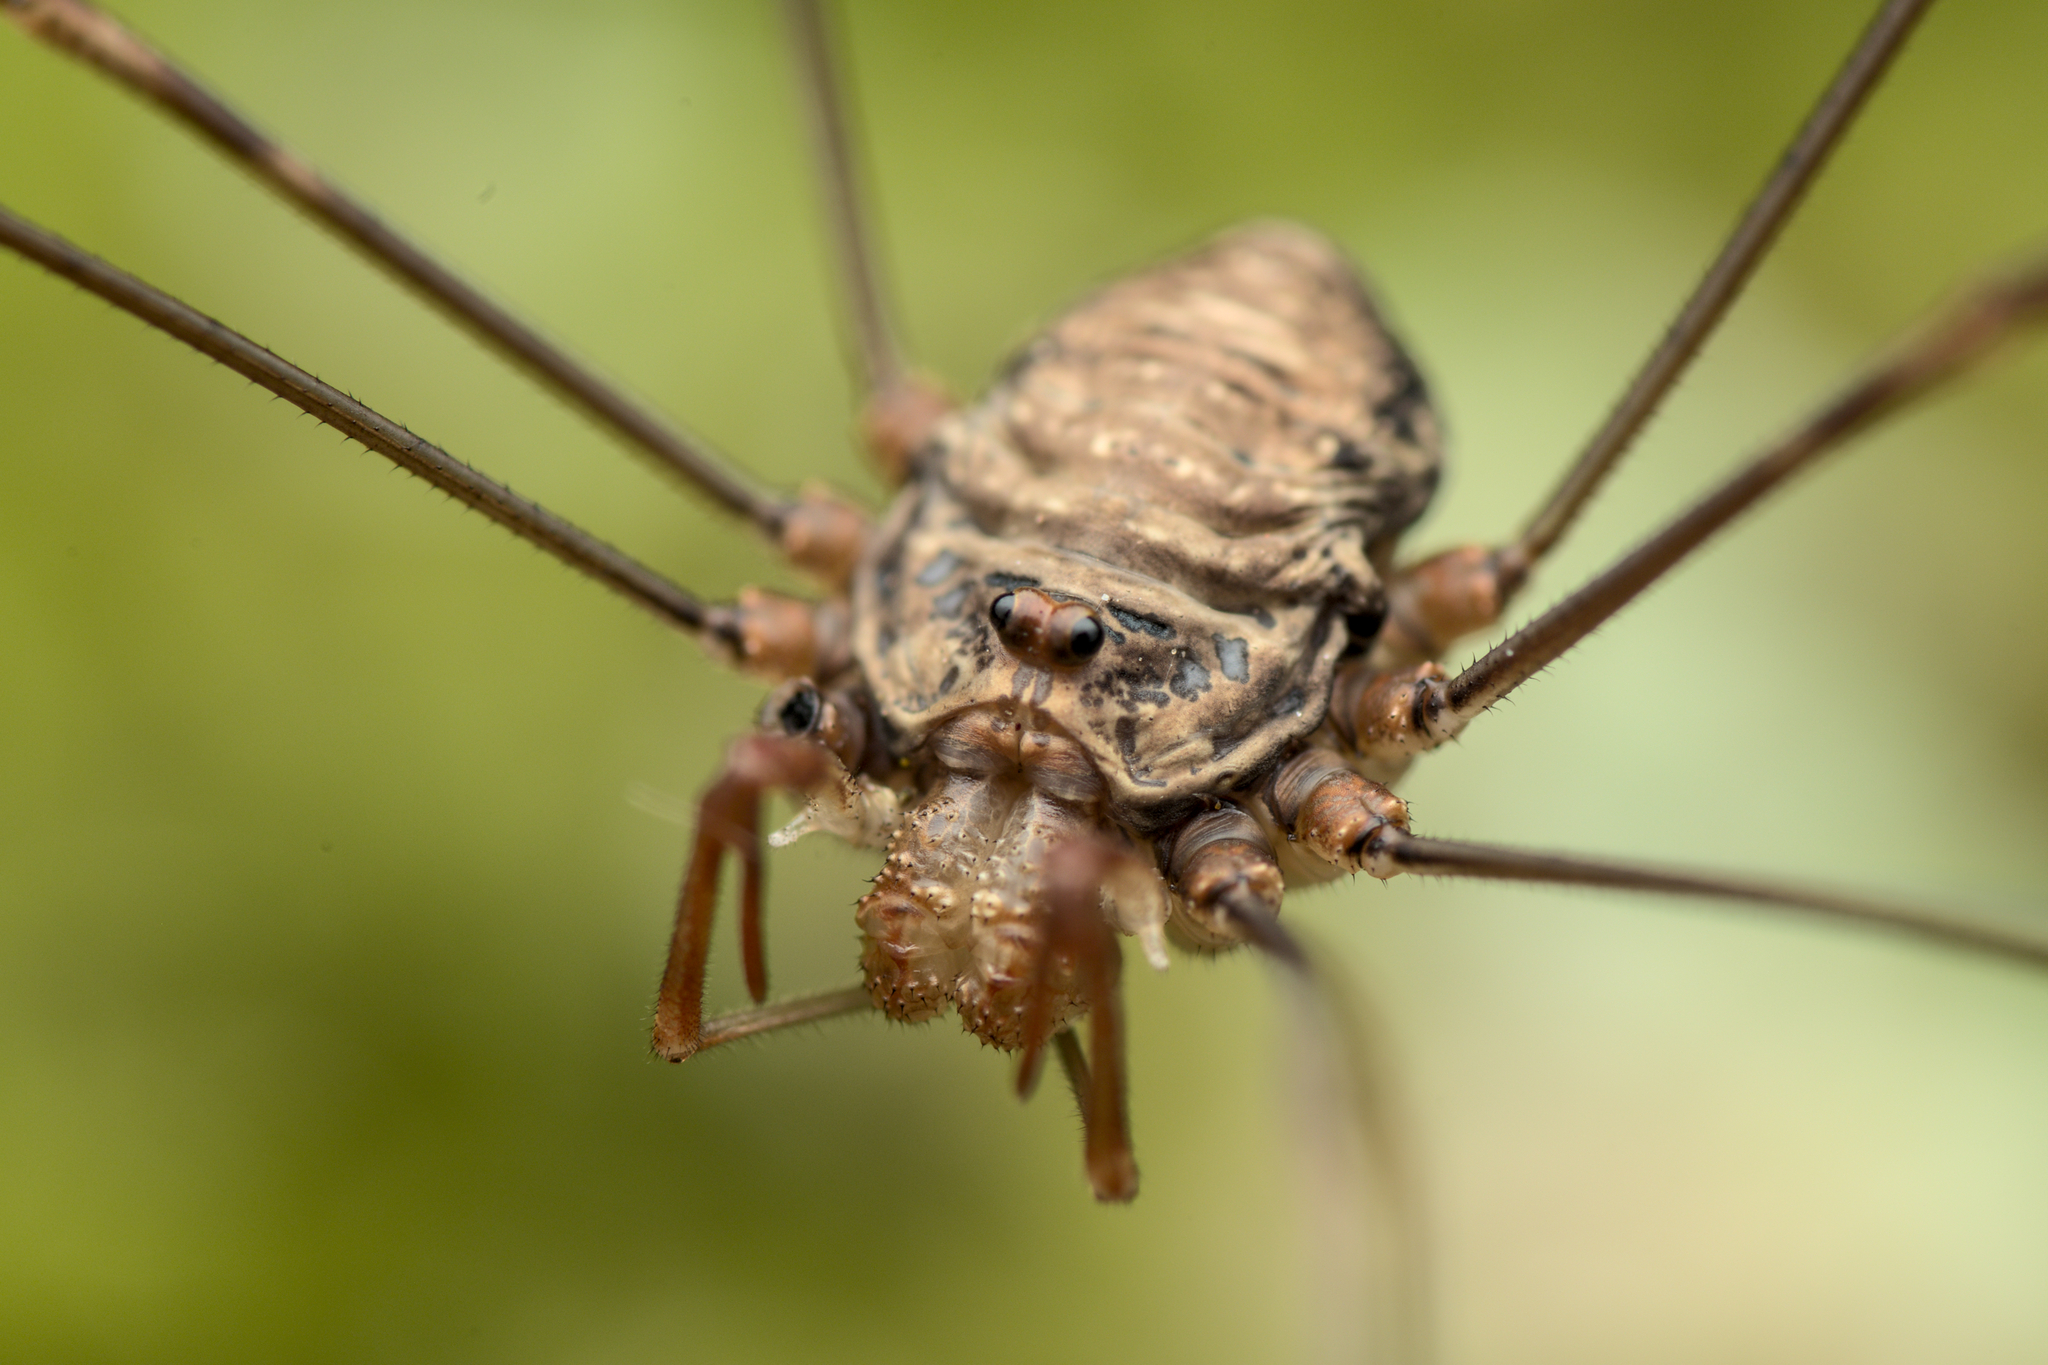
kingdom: Animalia
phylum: Arthropoda
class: Arachnida
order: Opiliones
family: Phalangiidae
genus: Dicranopalpus
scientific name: Dicranopalpus ramosus
